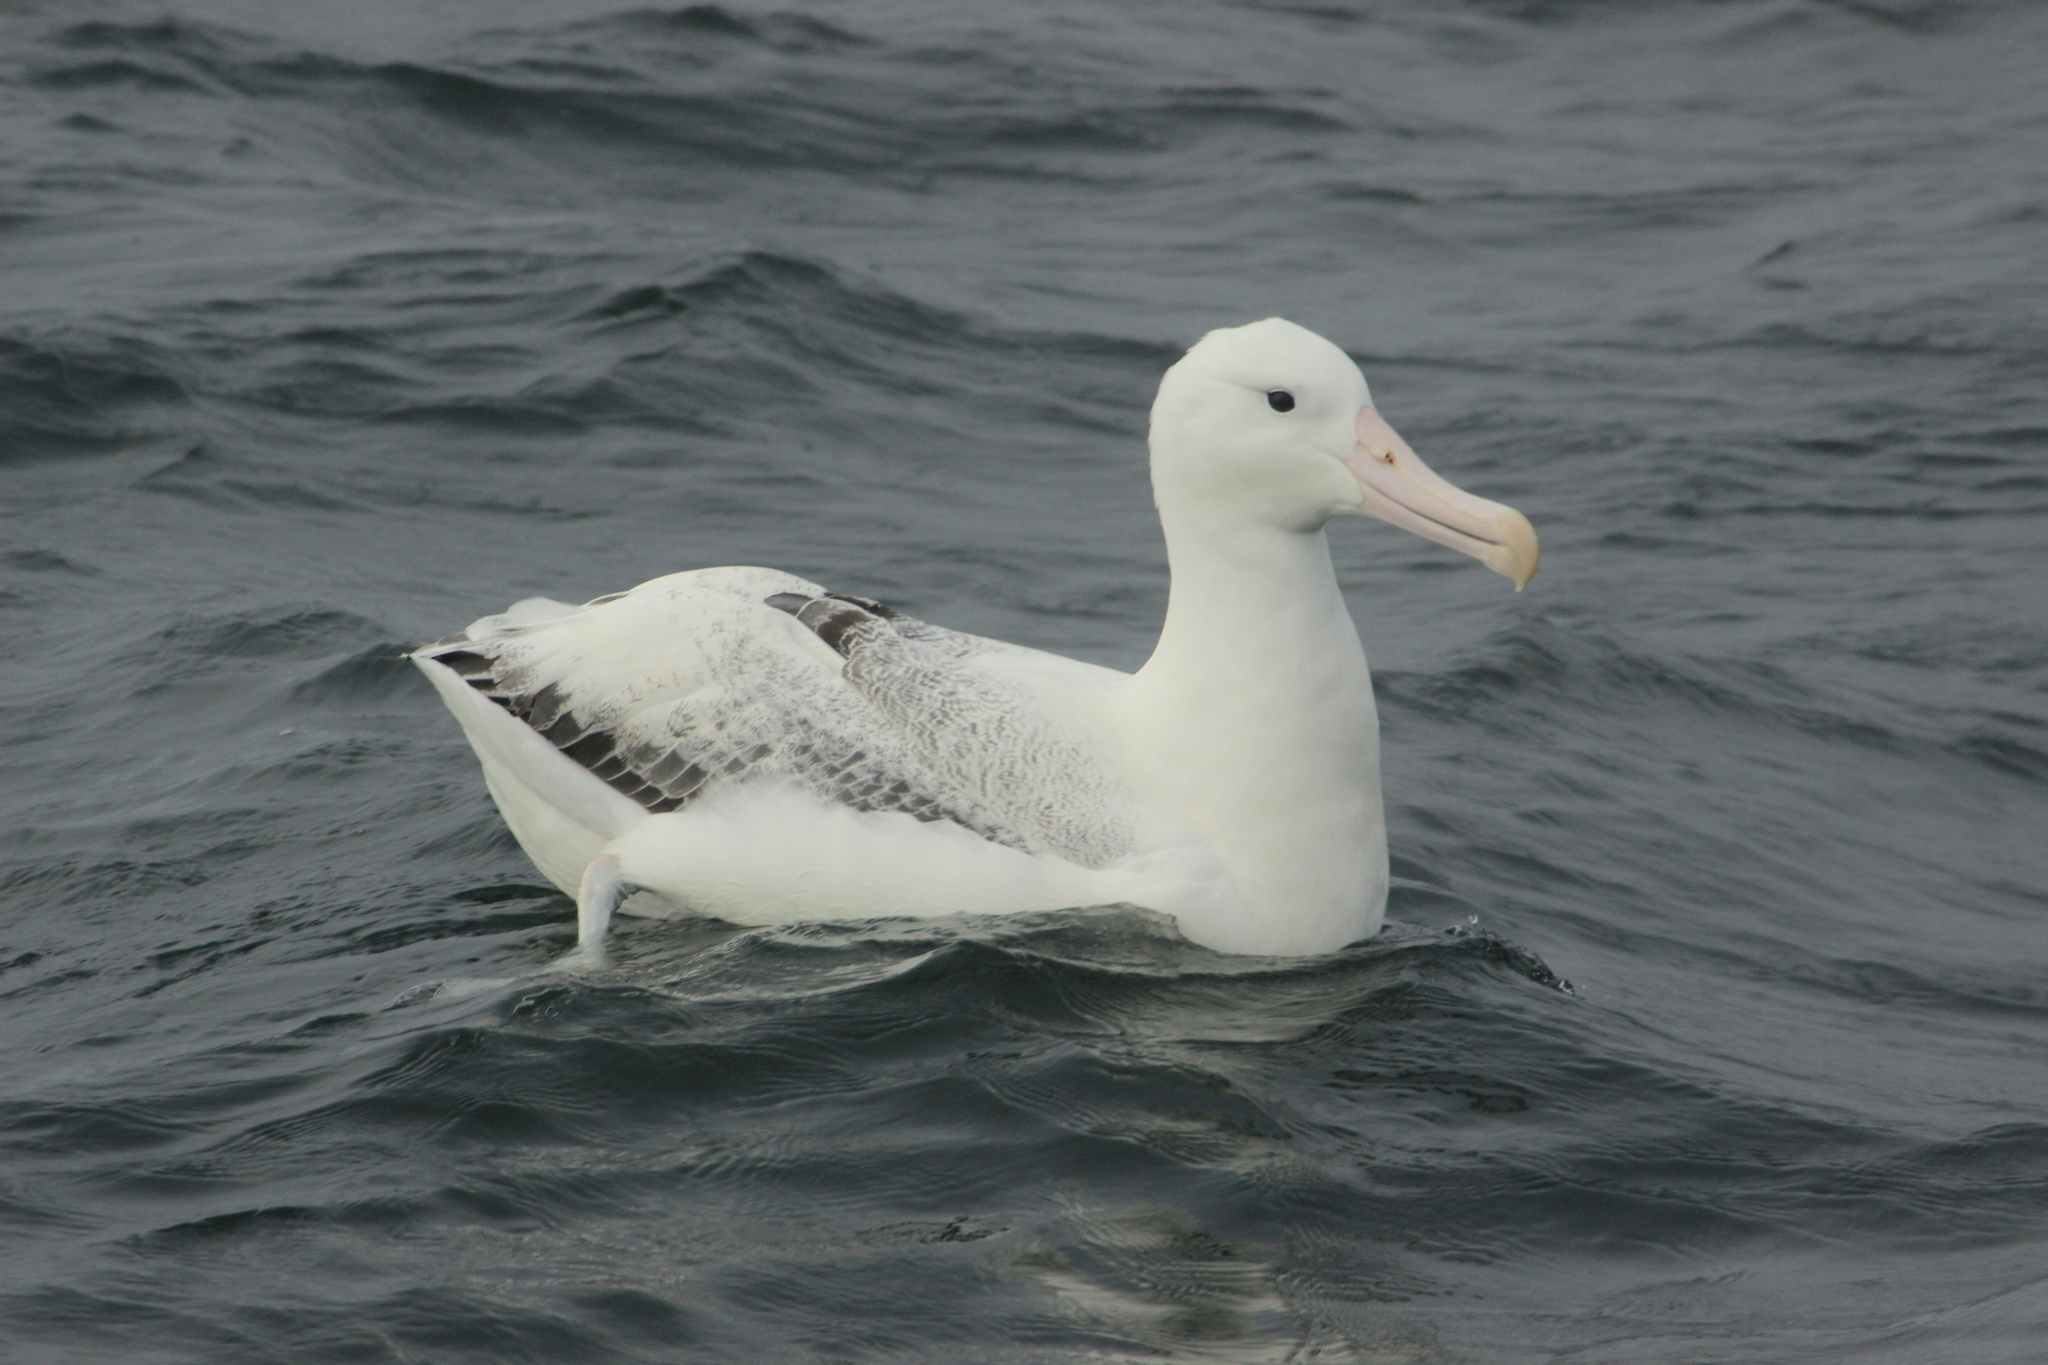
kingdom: Animalia
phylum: Chordata
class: Aves
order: Procellariiformes
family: Diomedeidae
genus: Diomedea
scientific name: Diomedea epomophora
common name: Southern royal albatross
